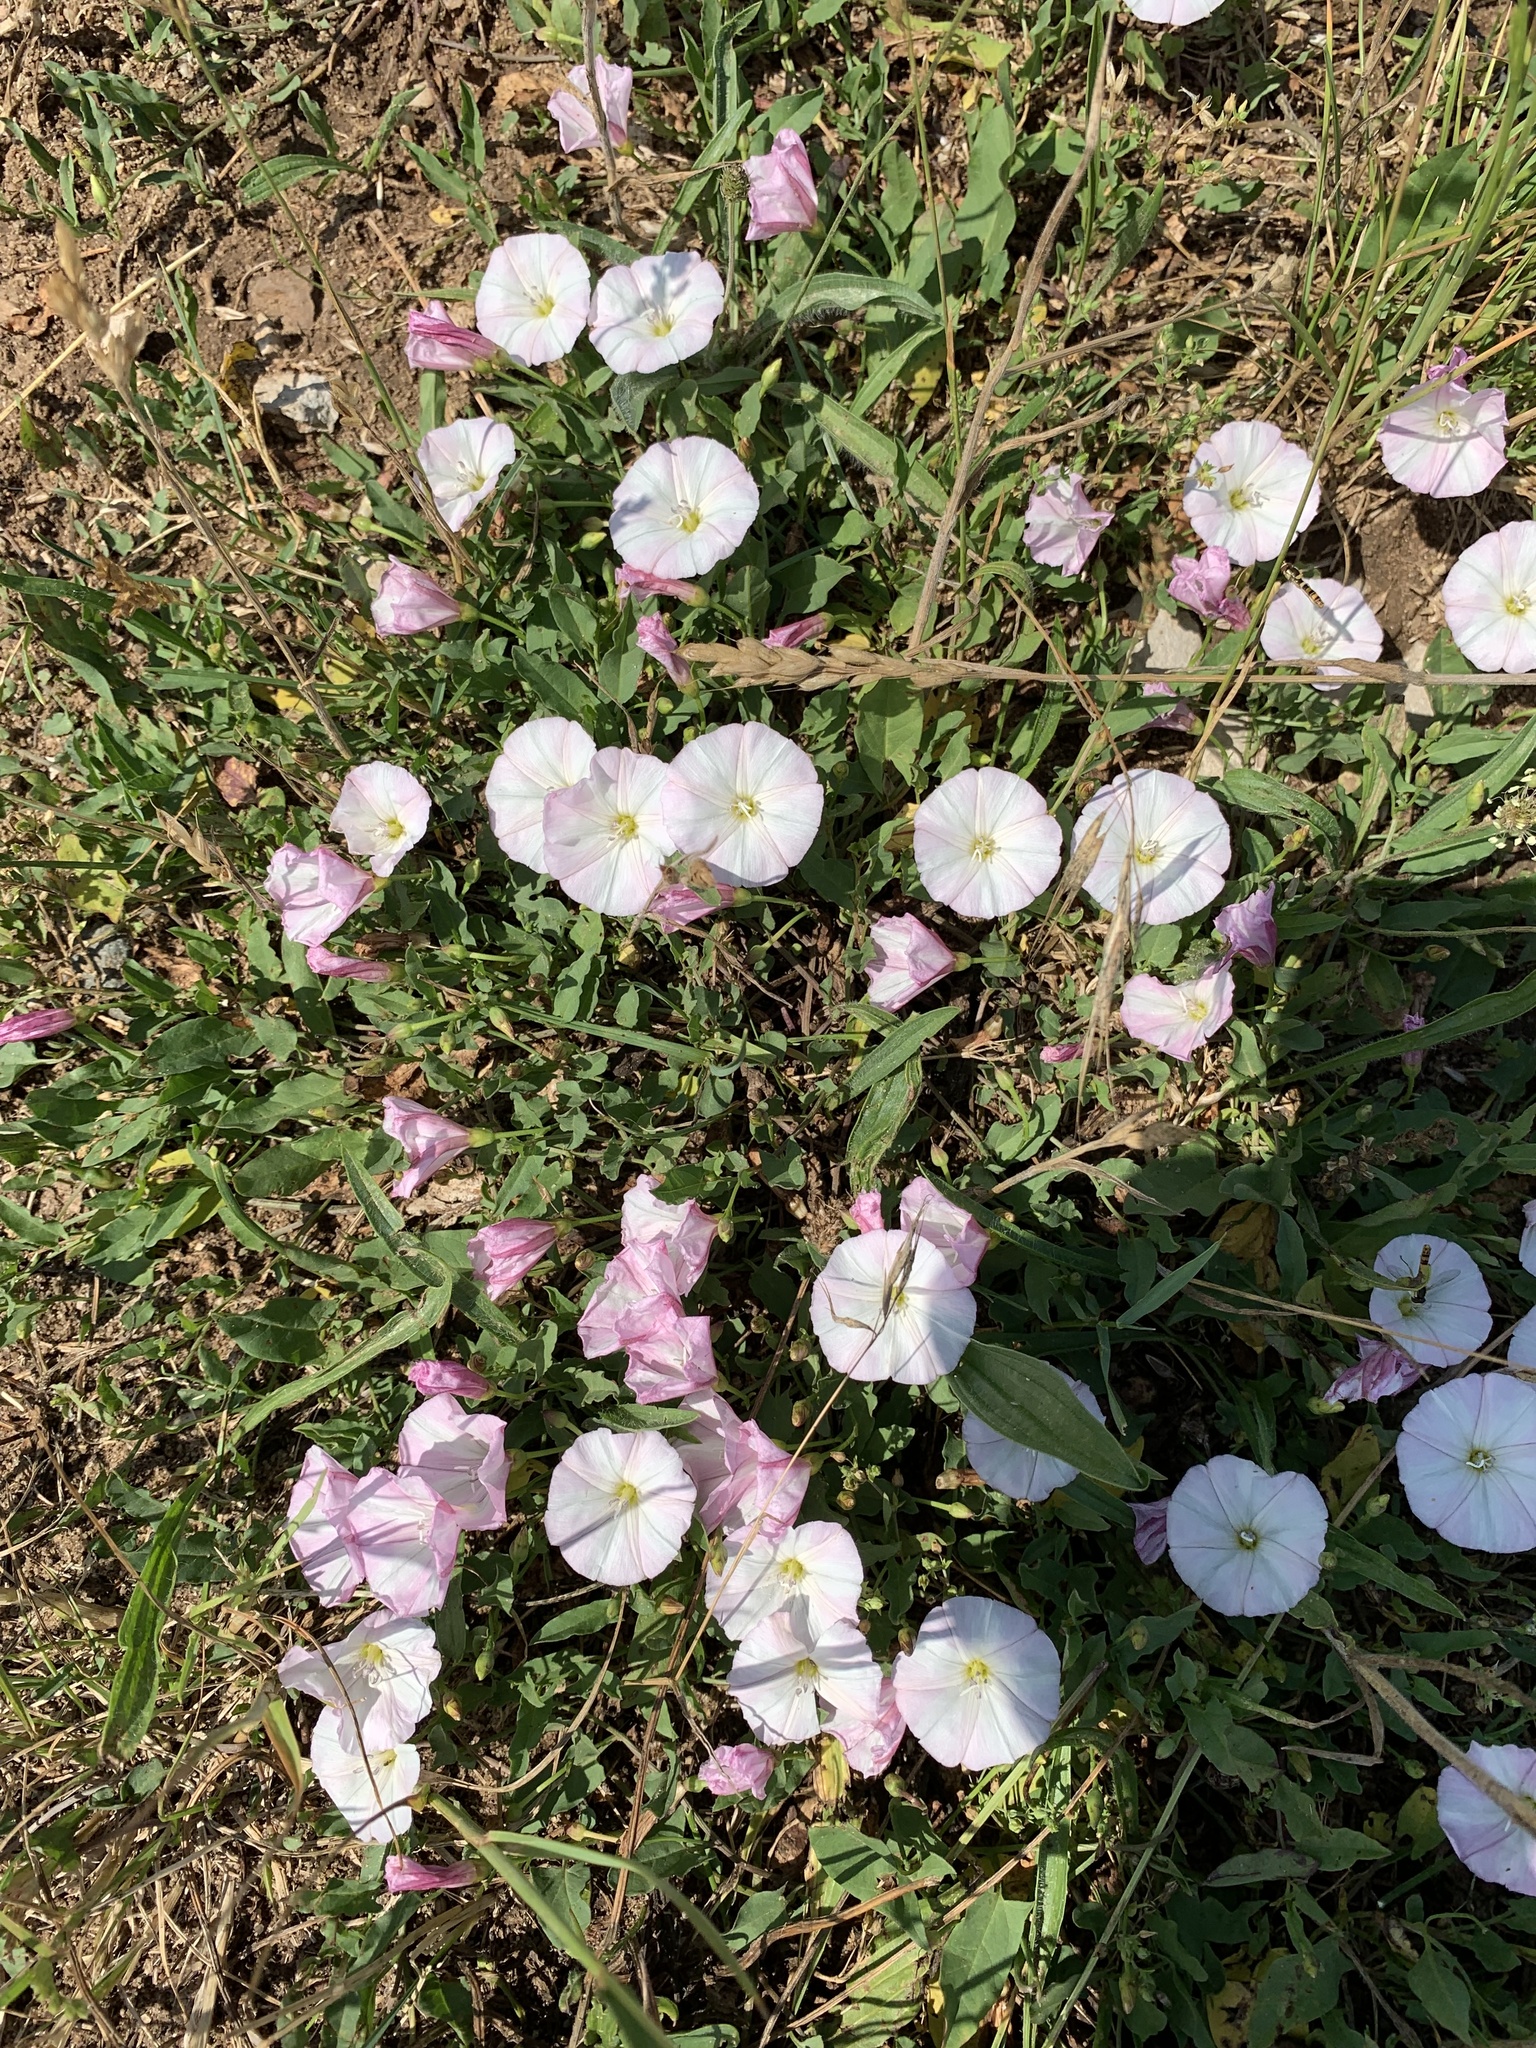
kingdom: Plantae
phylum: Tracheophyta
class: Magnoliopsida
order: Solanales
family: Convolvulaceae
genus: Convolvulus
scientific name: Convolvulus arvensis
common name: Field bindweed
